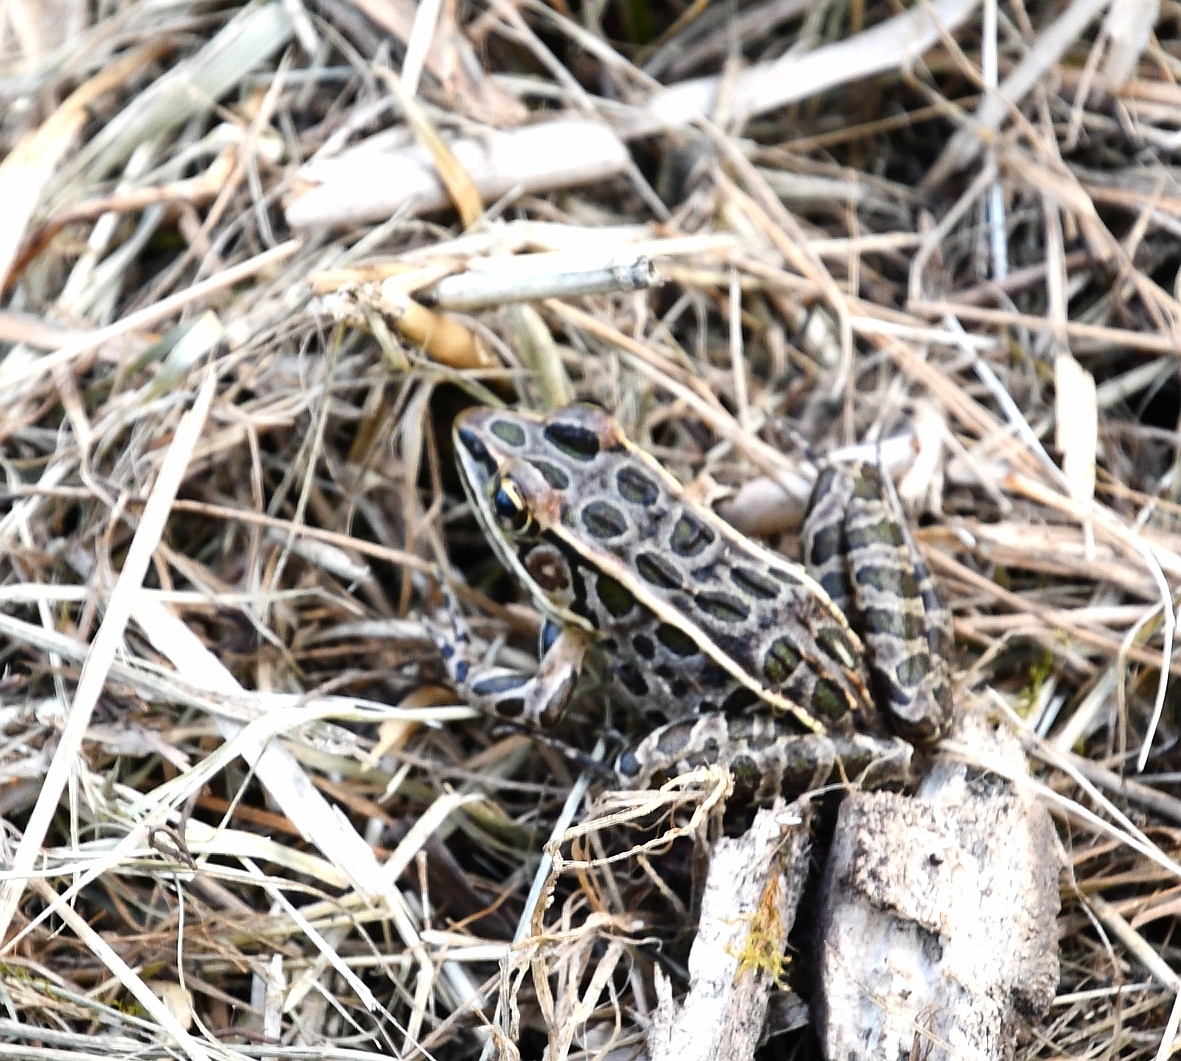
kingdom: Animalia
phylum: Chordata
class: Amphibia
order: Anura
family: Ranidae
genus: Lithobates
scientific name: Lithobates pipiens
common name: Northern leopard frog
